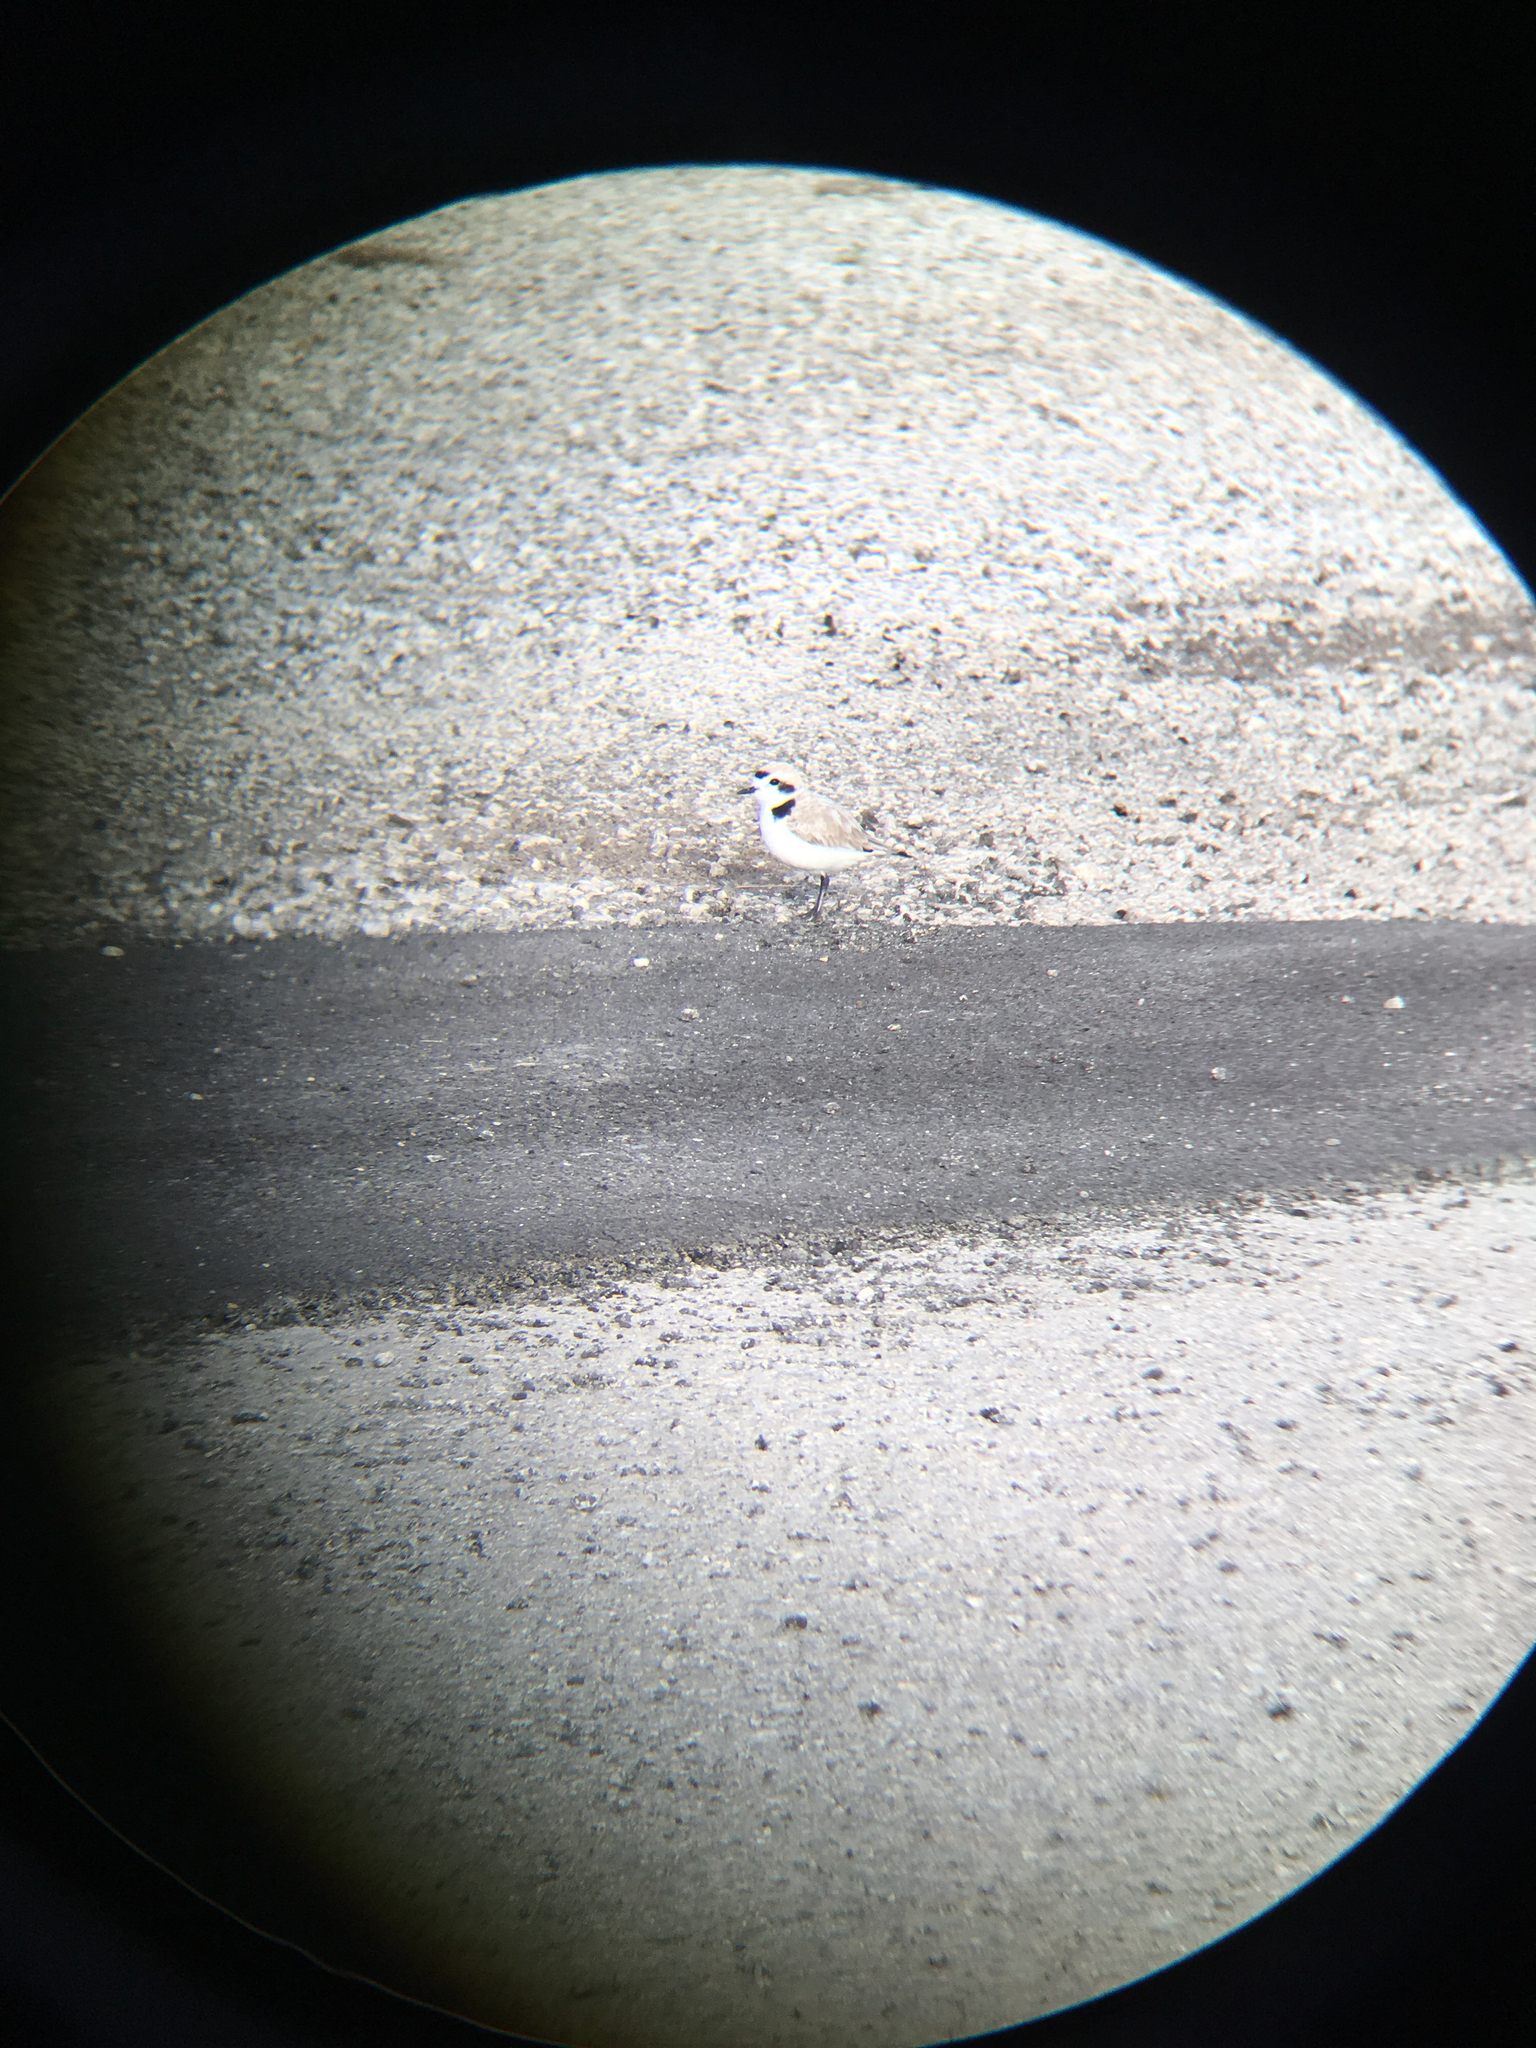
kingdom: Animalia
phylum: Chordata
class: Aves
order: Charadriiformes
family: Charadriidae
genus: Anarhynchus
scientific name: Anarhynchus
